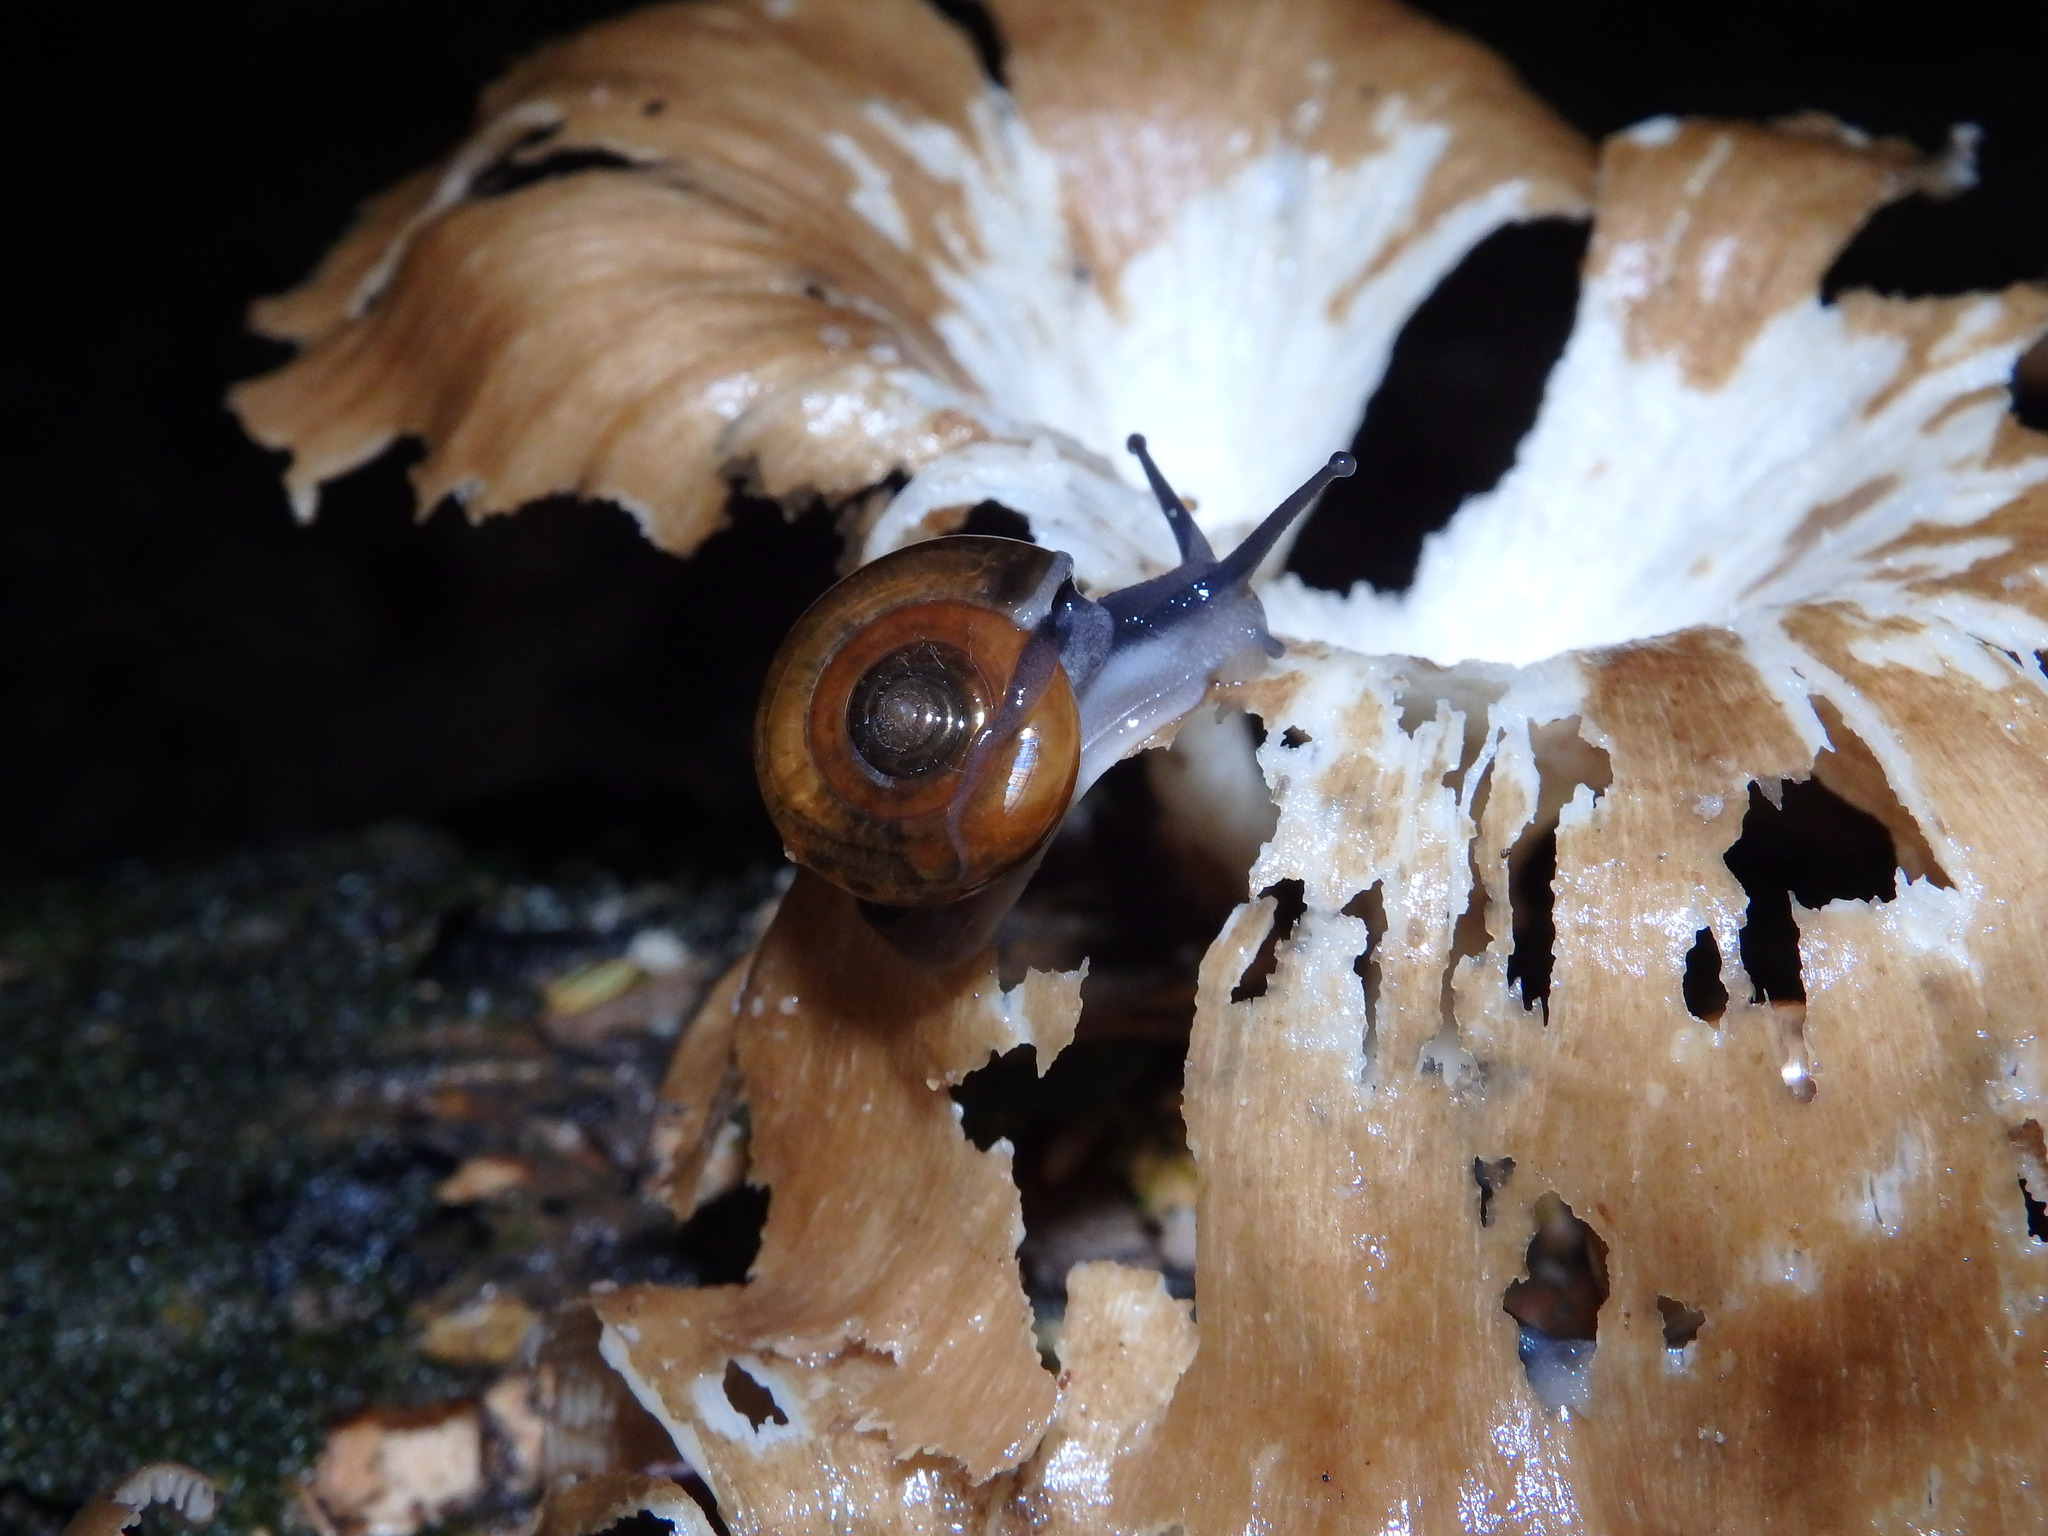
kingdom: Animalia
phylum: Mollusca
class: Gastropoda
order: Stylommatophora
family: Ariophantidae
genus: Sarika
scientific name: Sarika resplendens
